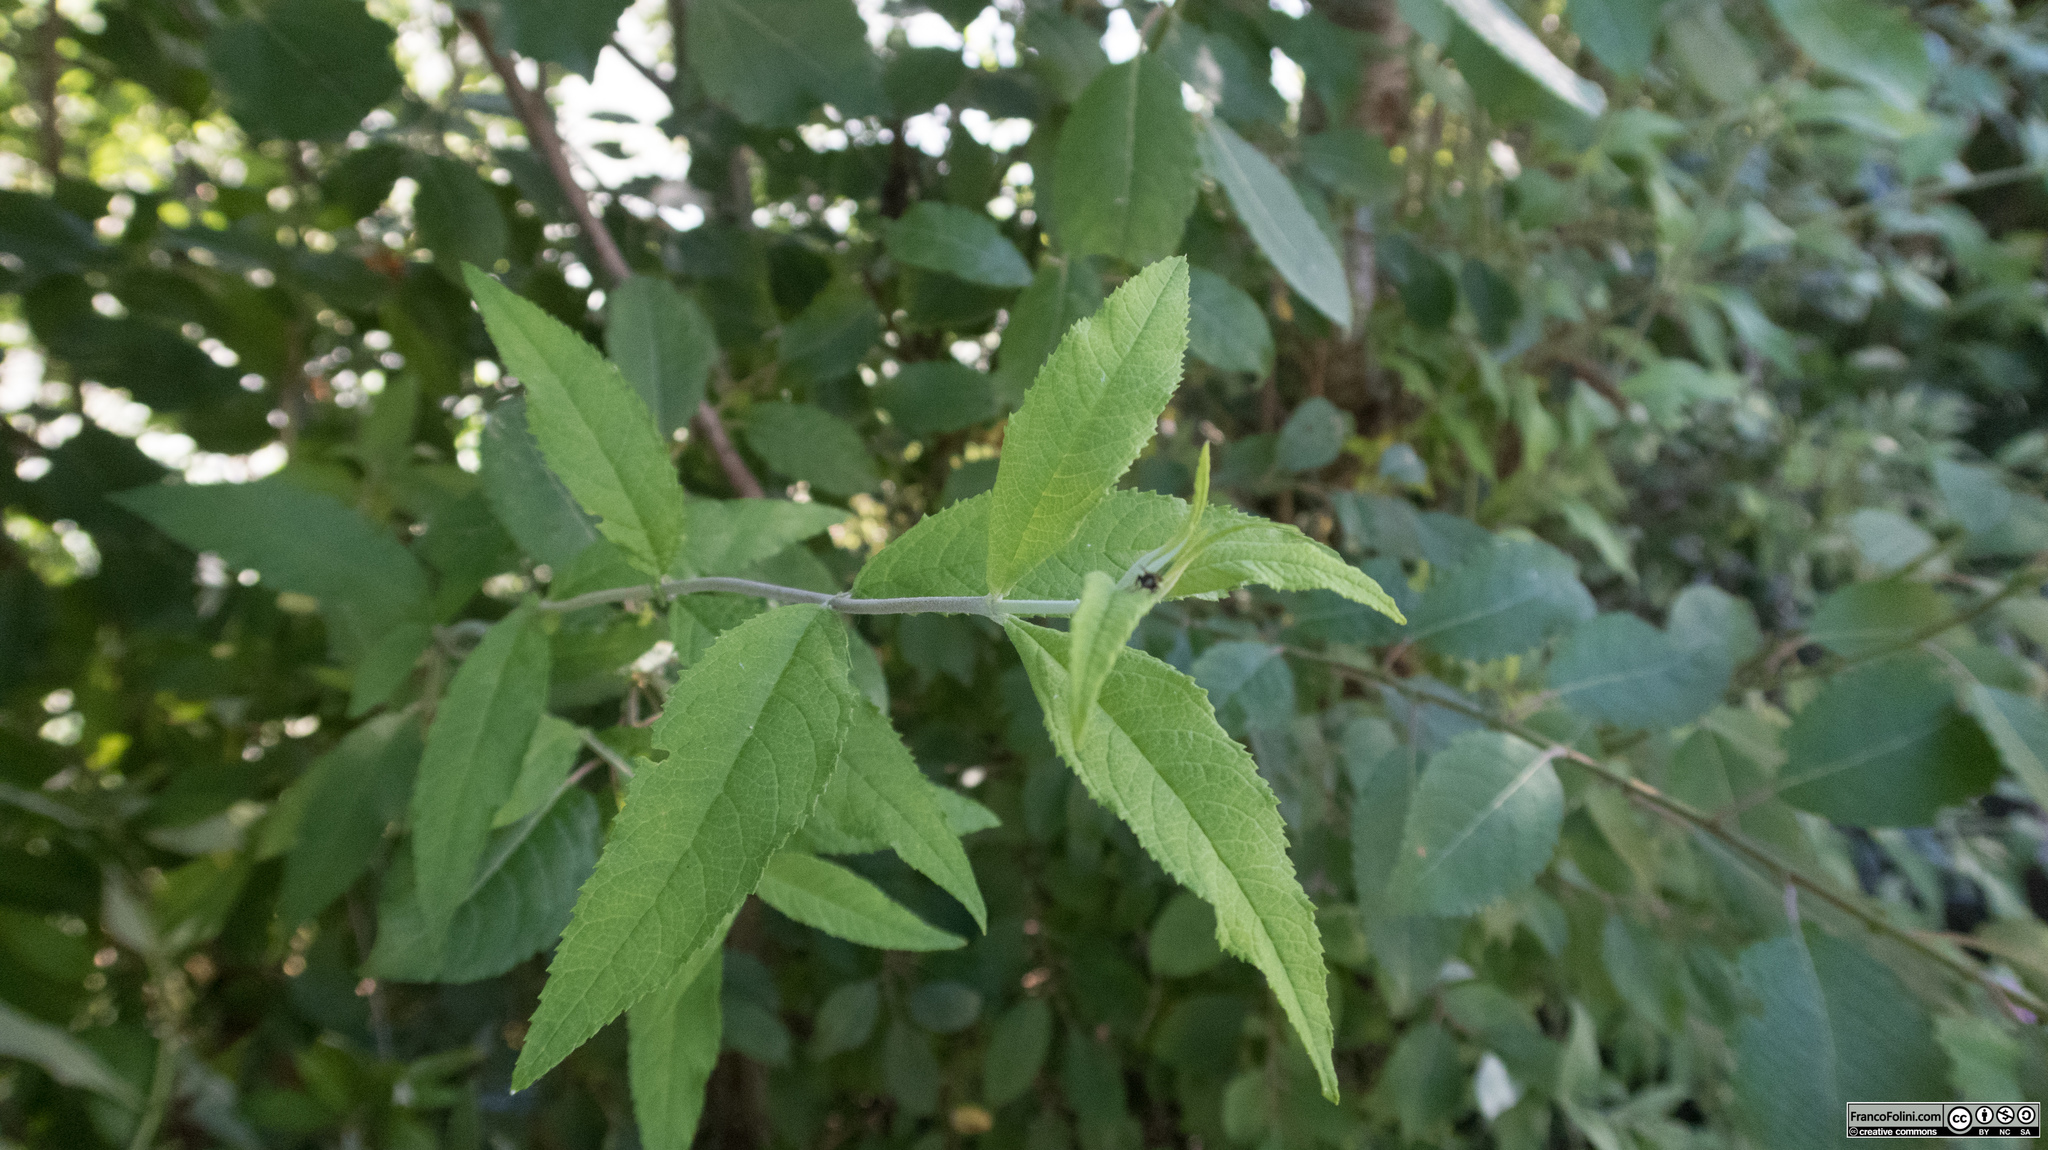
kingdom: Plantae
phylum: Tracheophyta
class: Magnoliopsida
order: Lamiales
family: Scrophulariaceae
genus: Buddleja
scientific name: Buddleja davidii
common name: Butterfly-bush
